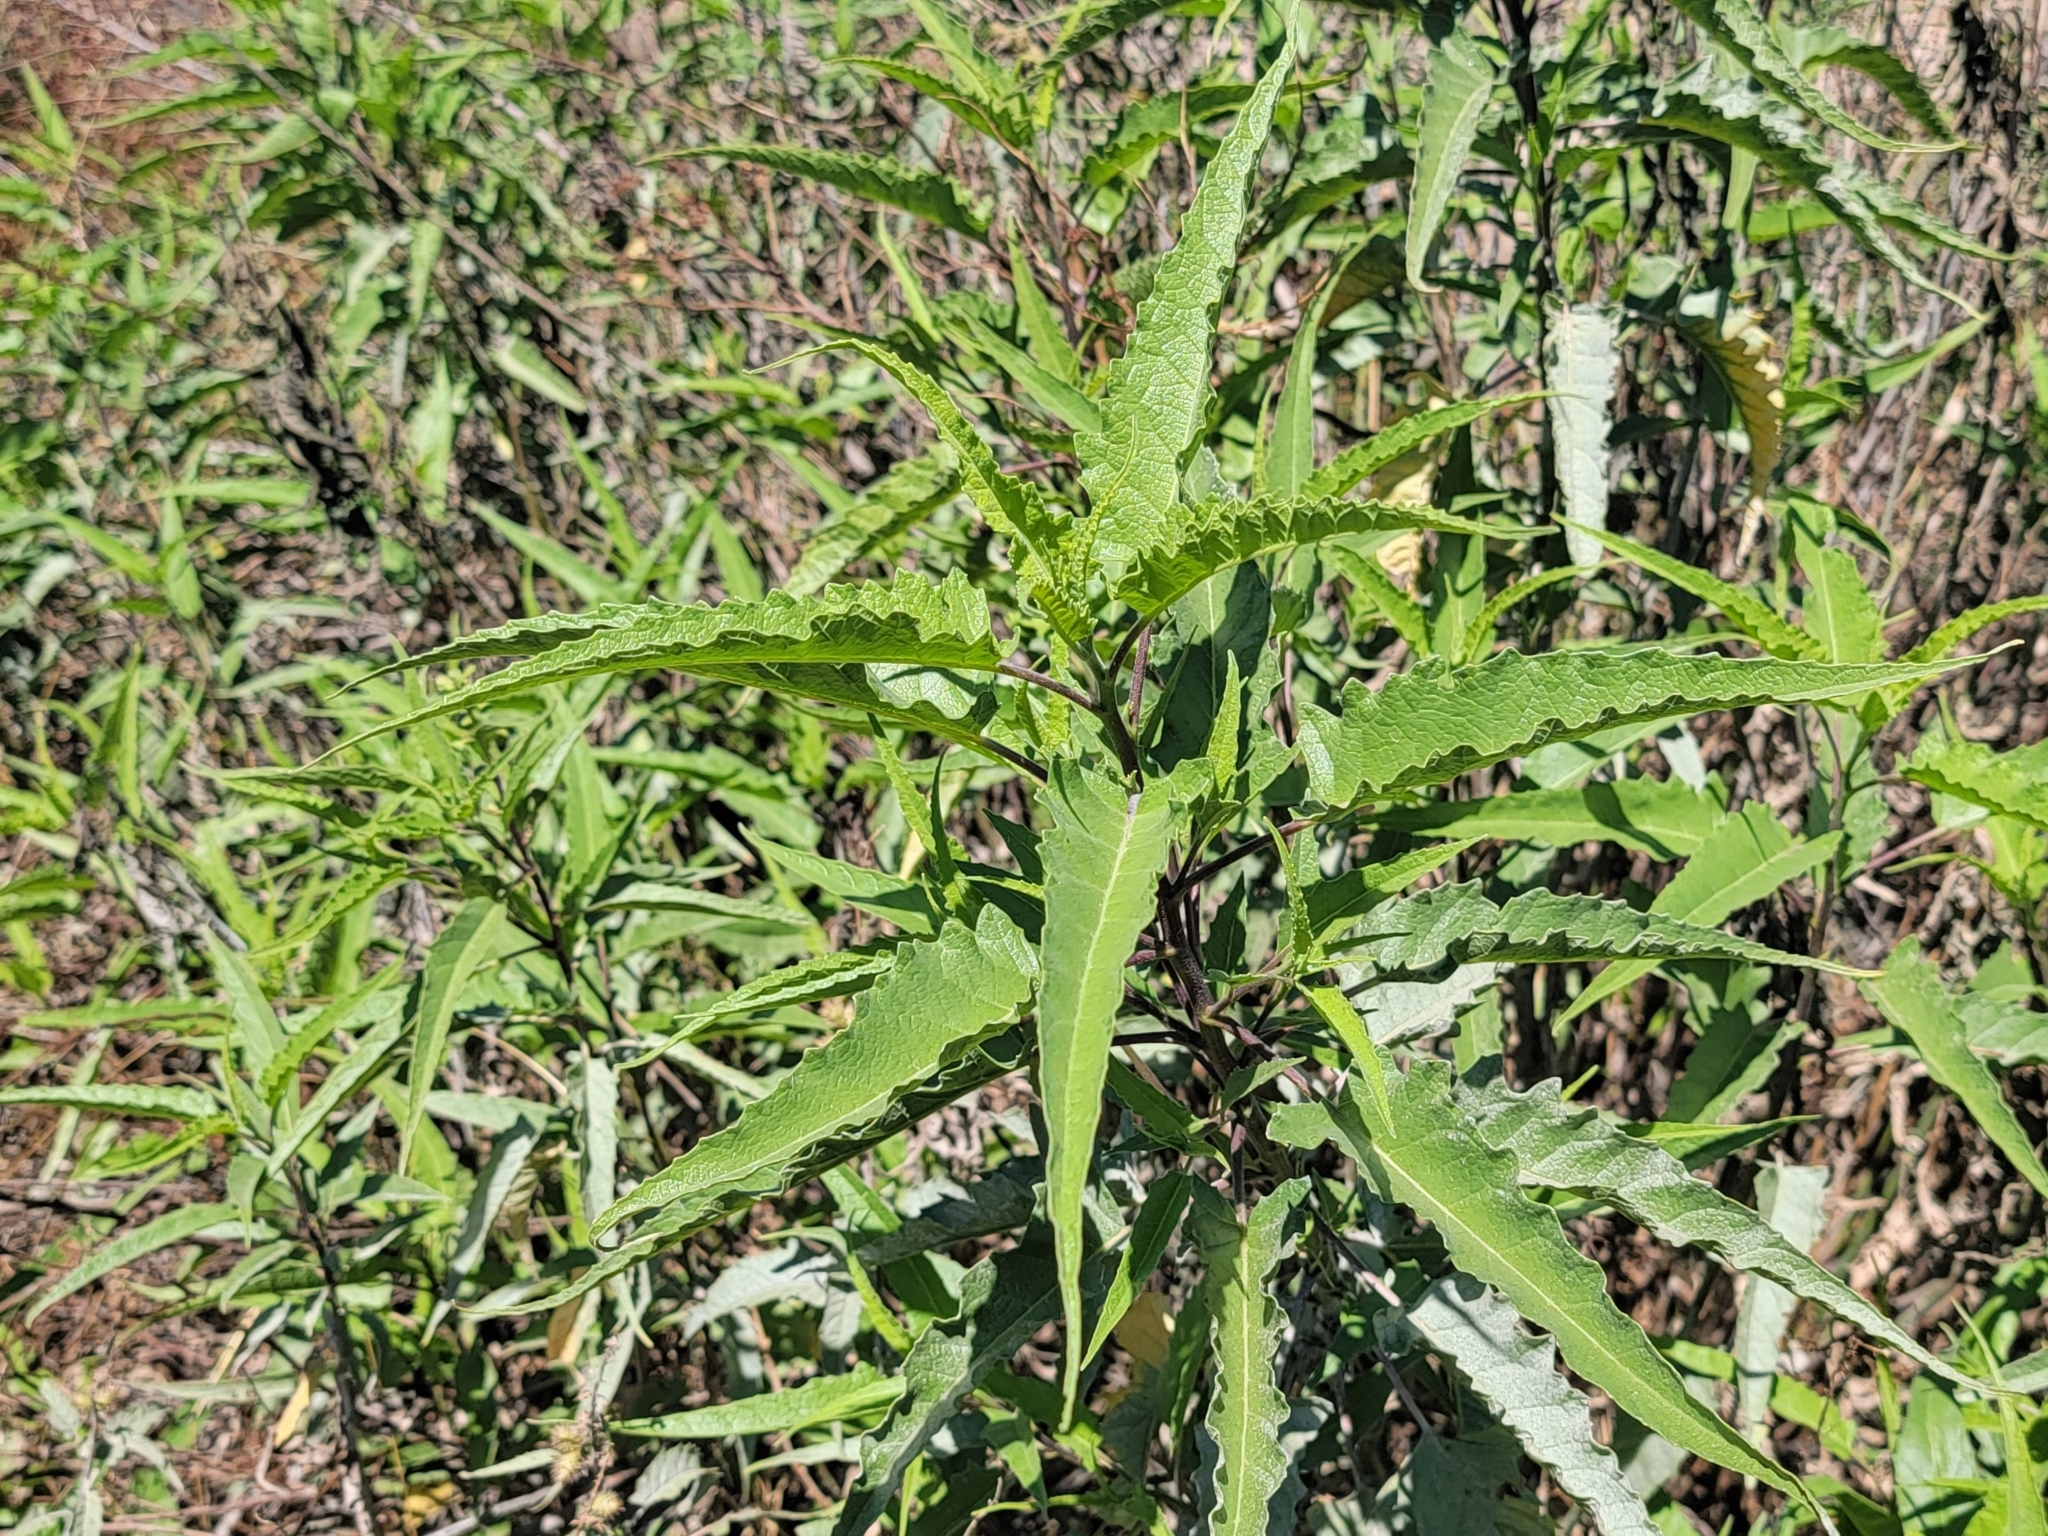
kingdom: Plantae
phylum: Tracheophyta
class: Magnoliopsida
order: Asterales
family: Asteraceae
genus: Ambrosia
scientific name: Ambrosia ambrosioides
